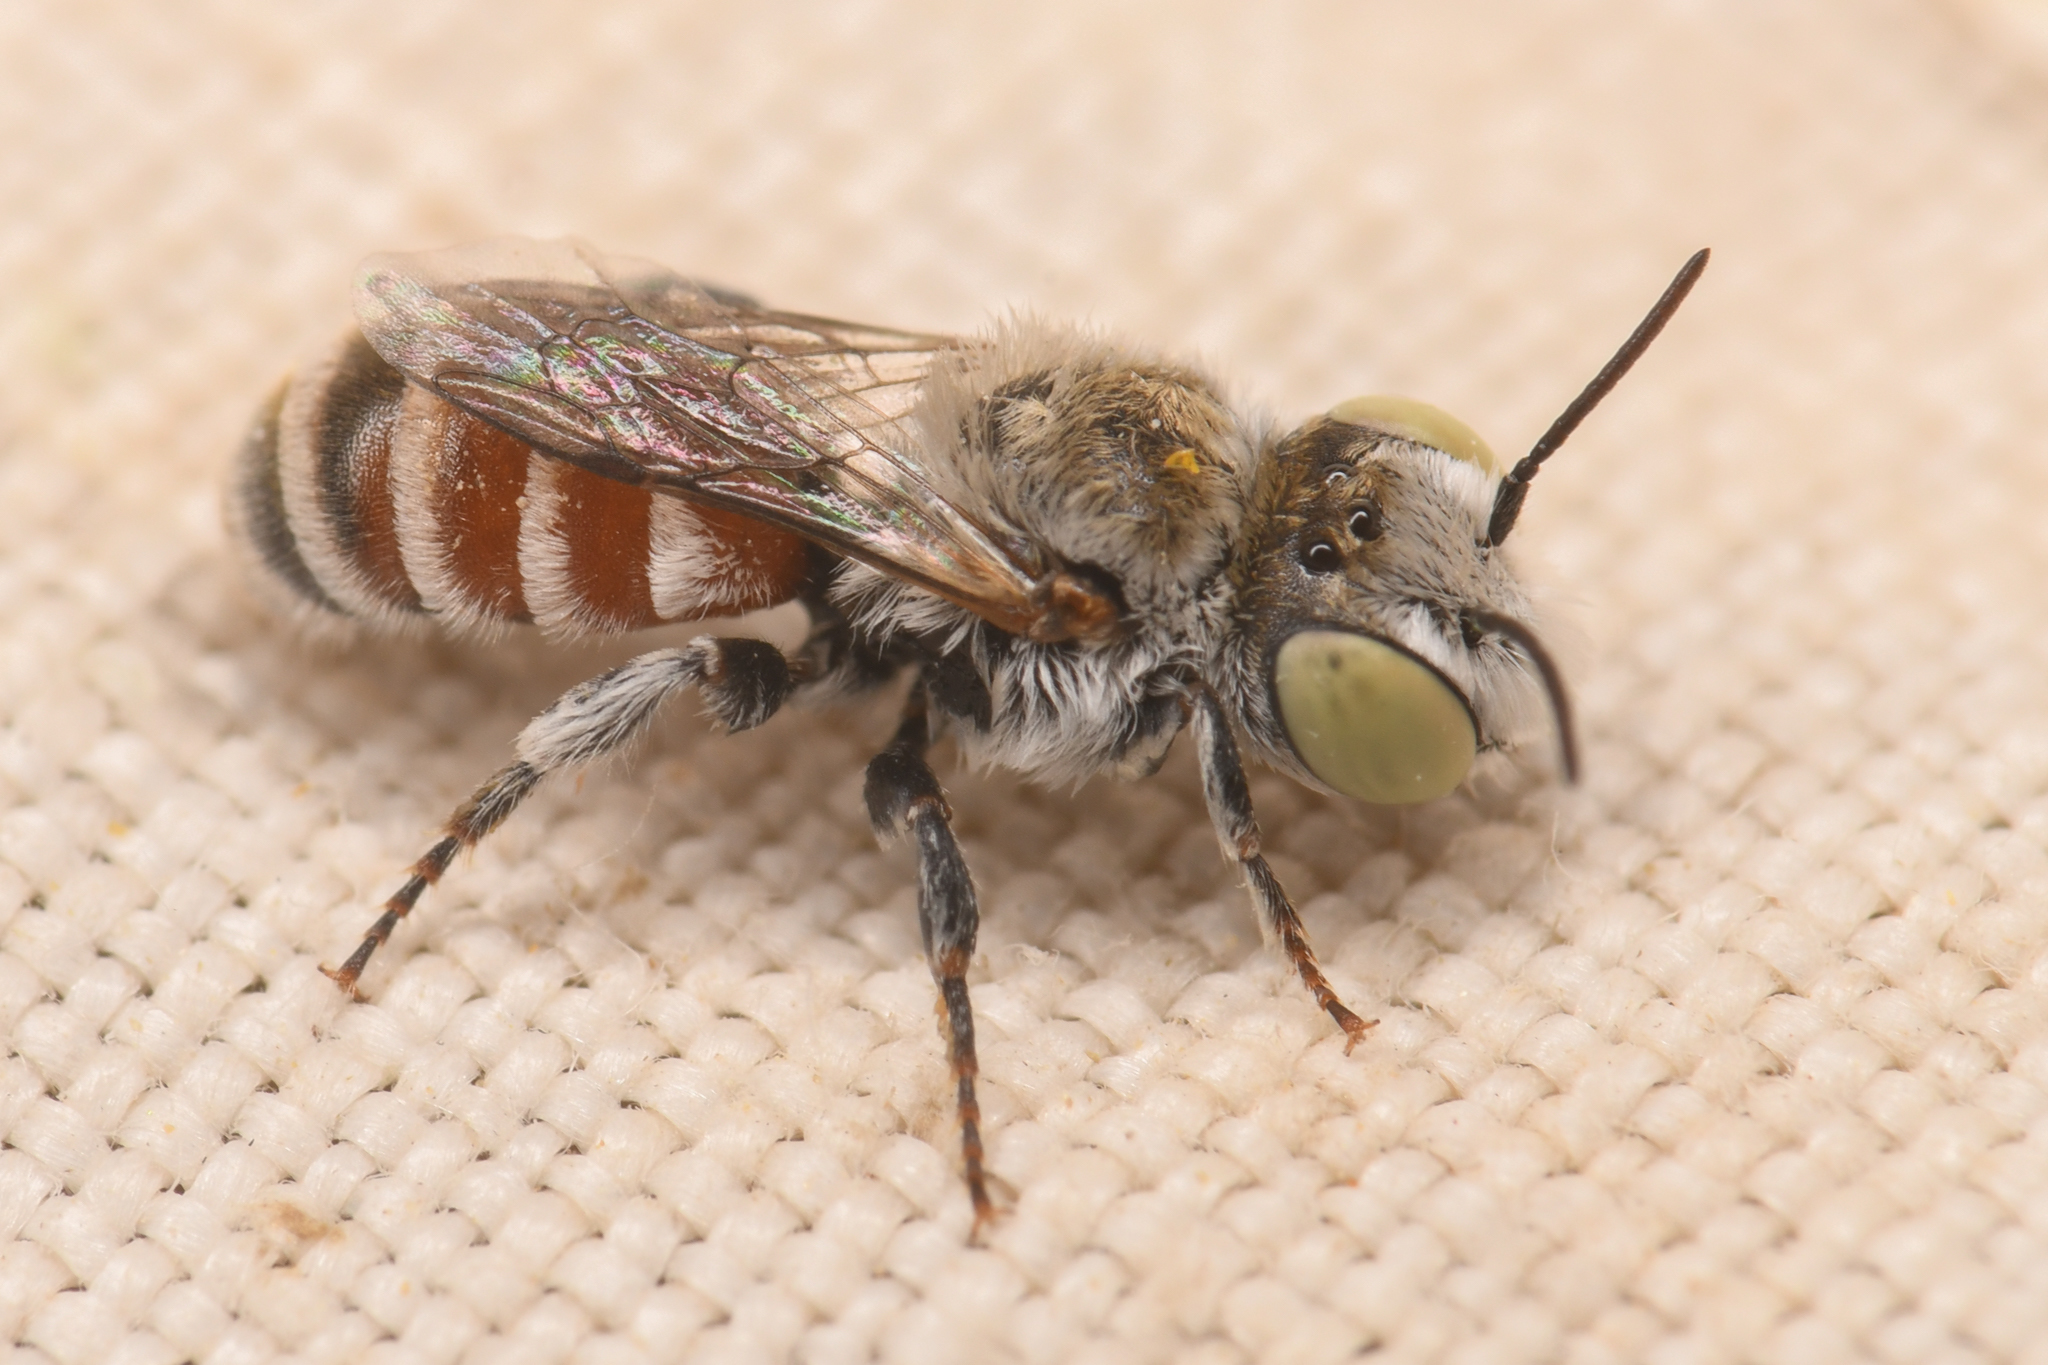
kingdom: Animalia
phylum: Arthropoda
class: Insecta
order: Hymenoptera
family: Megachilidae
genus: Ashmeadiella
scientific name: Ashmeadiella
